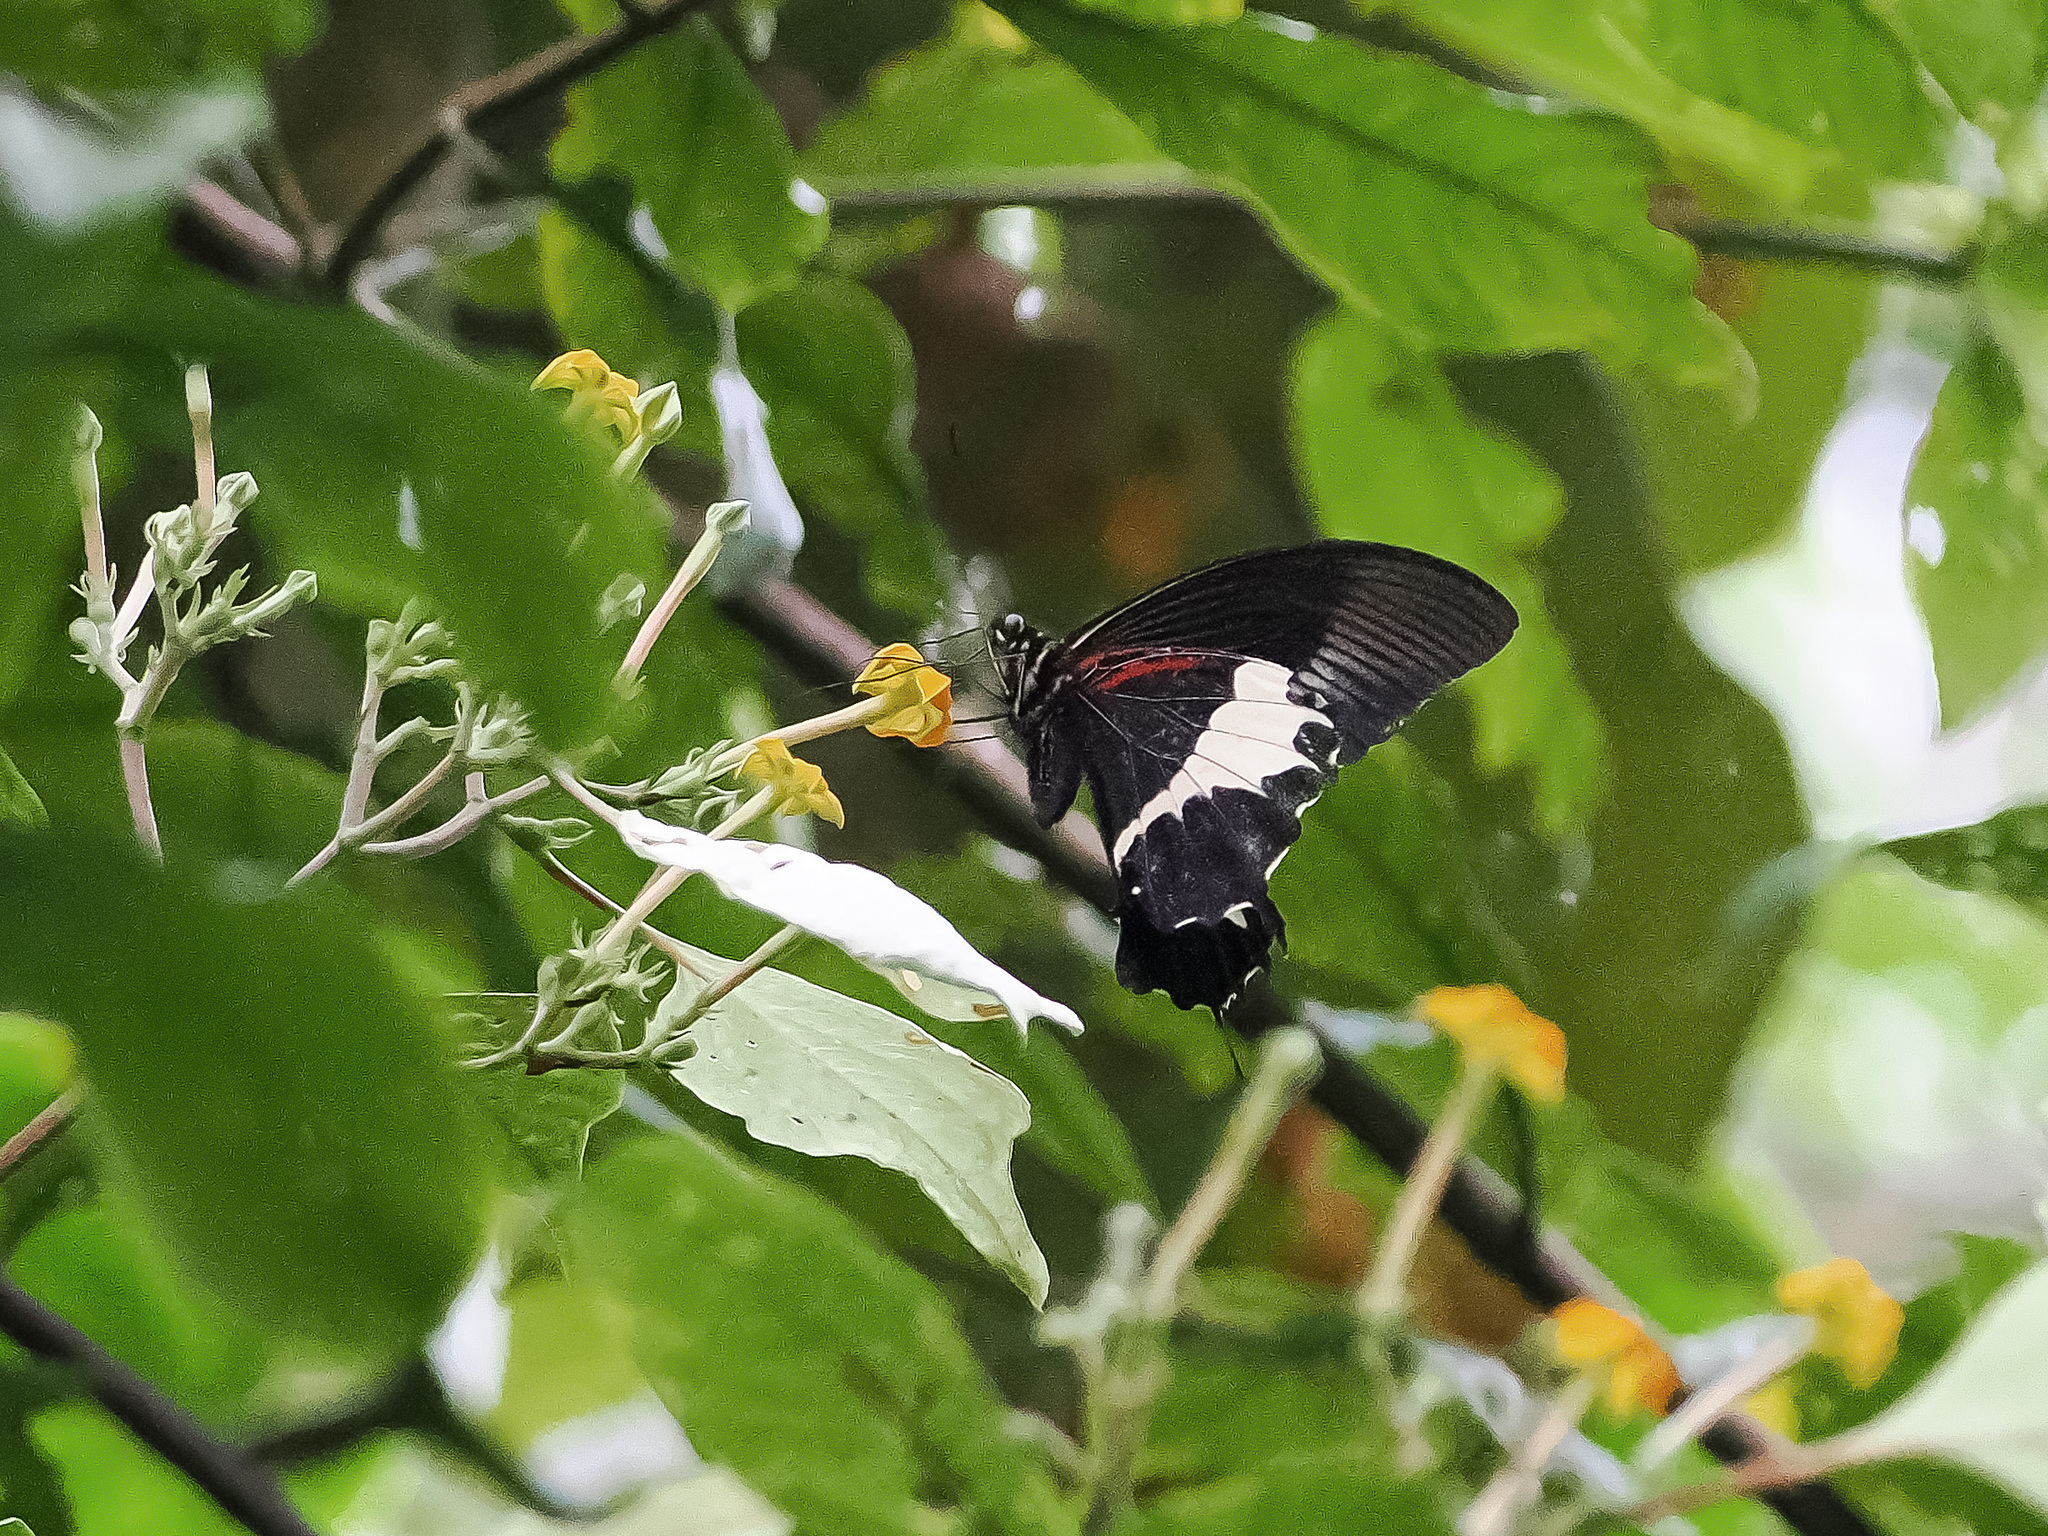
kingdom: Animalia
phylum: Arthropoda
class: Insecta
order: Lepidoptera
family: Papilionidae
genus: Papilio
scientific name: Papilio diophantus
